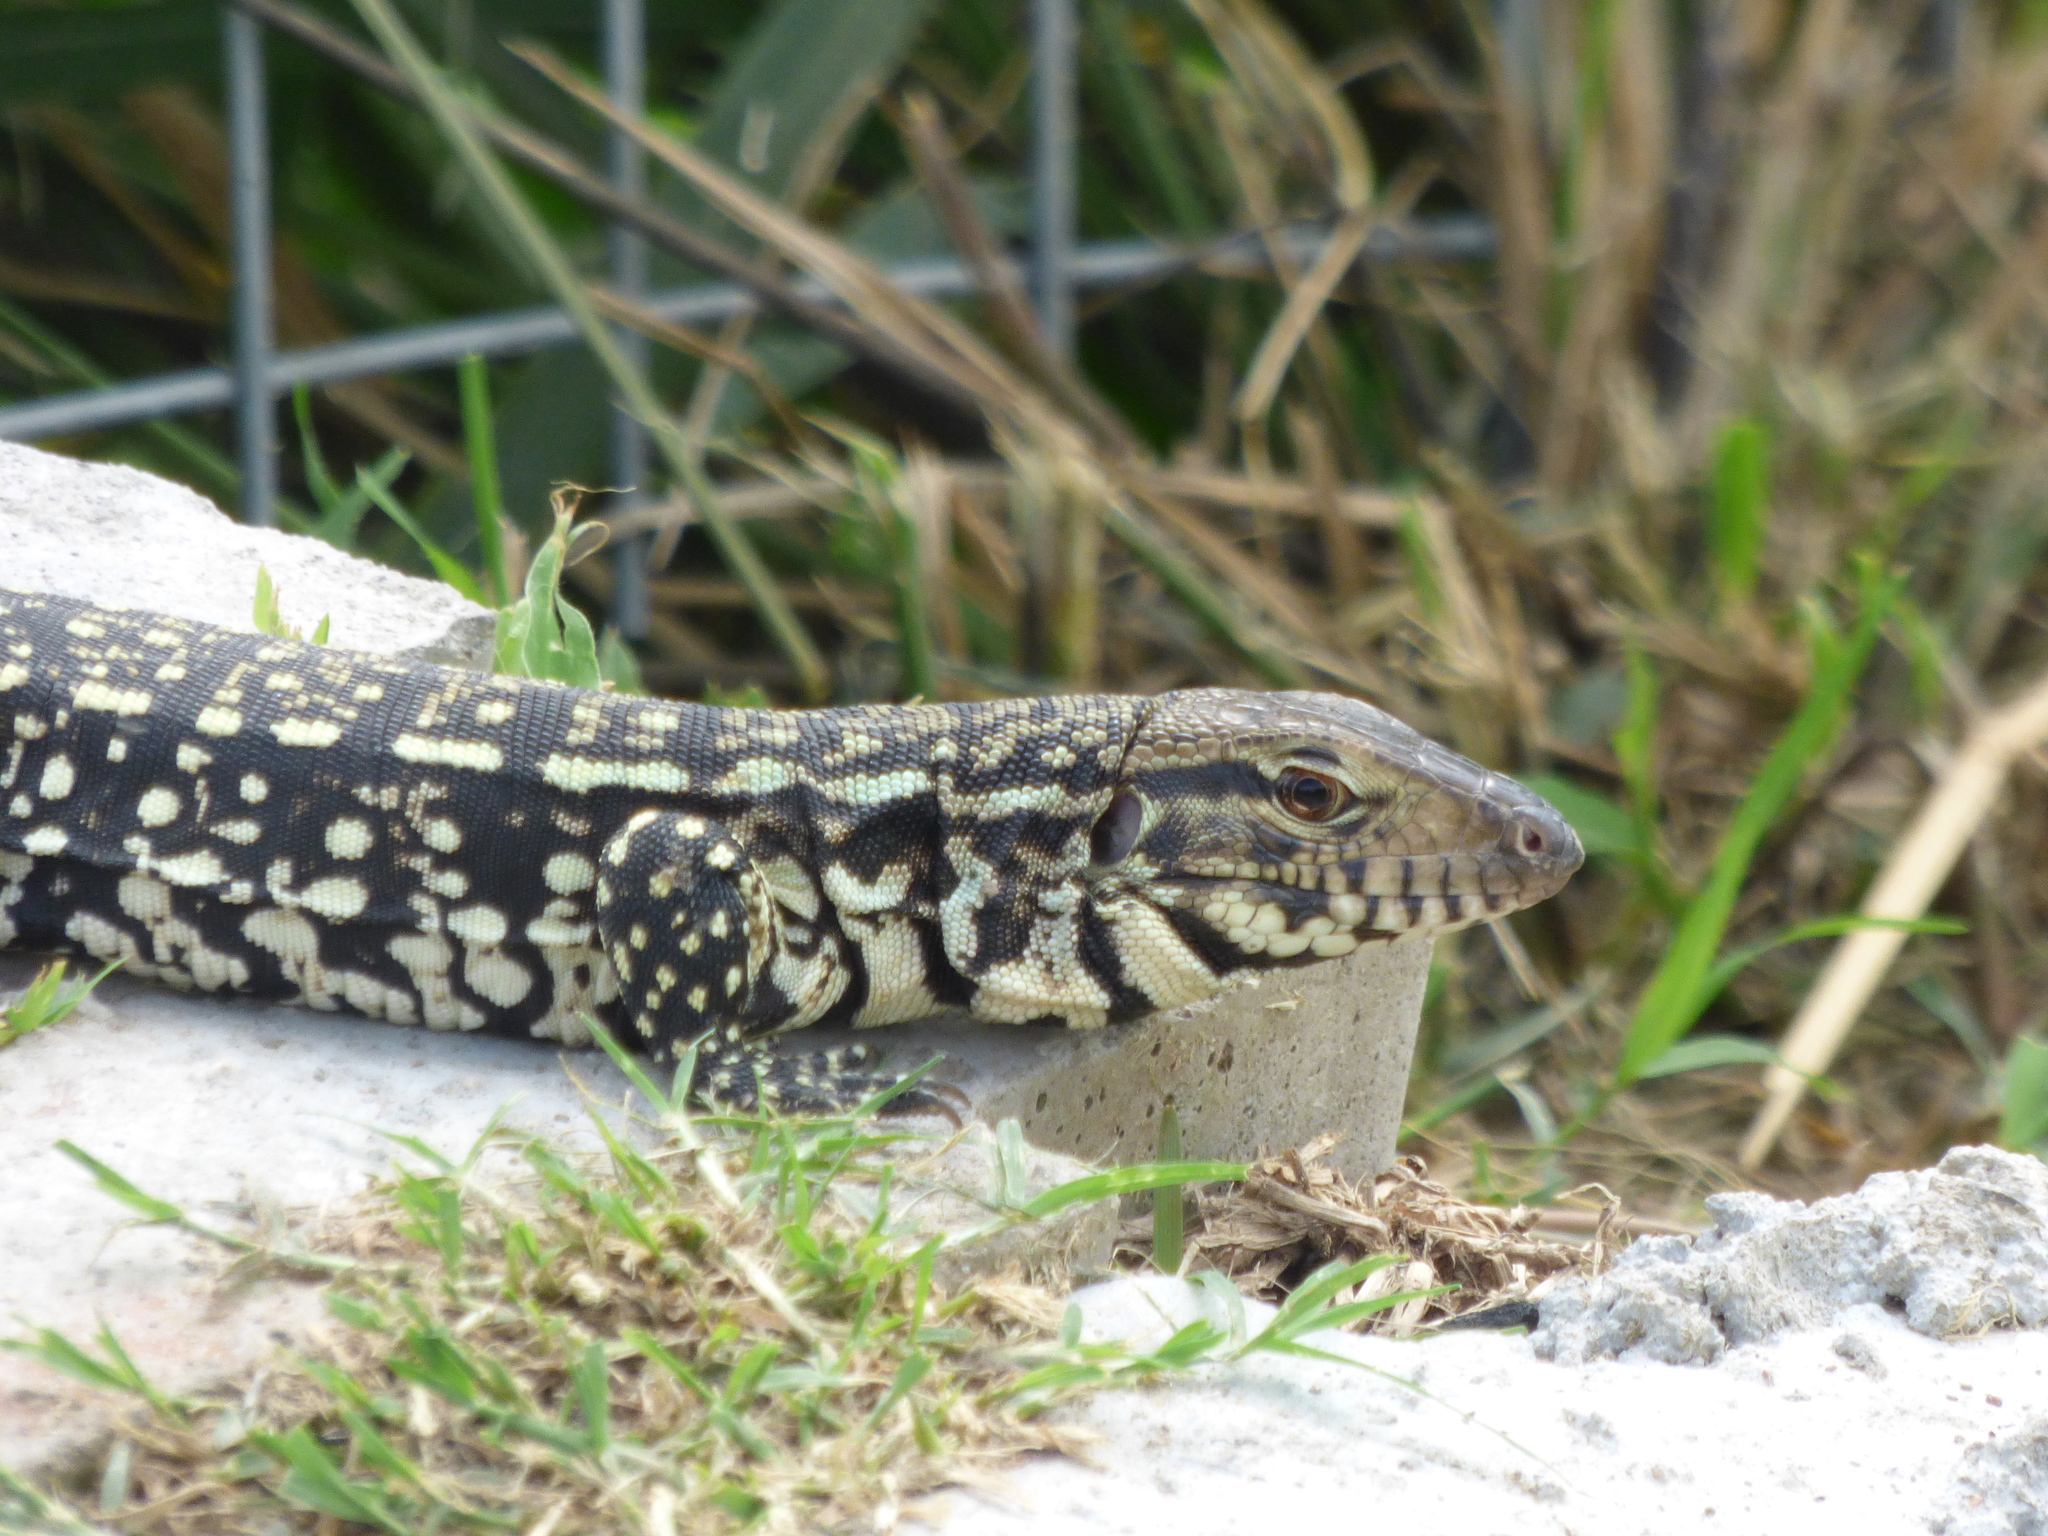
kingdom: Animalia
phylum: Chordata
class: Squamata
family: Teiidae
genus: Salvator
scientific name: Salvator merianae
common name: Argentine black and white tegu
